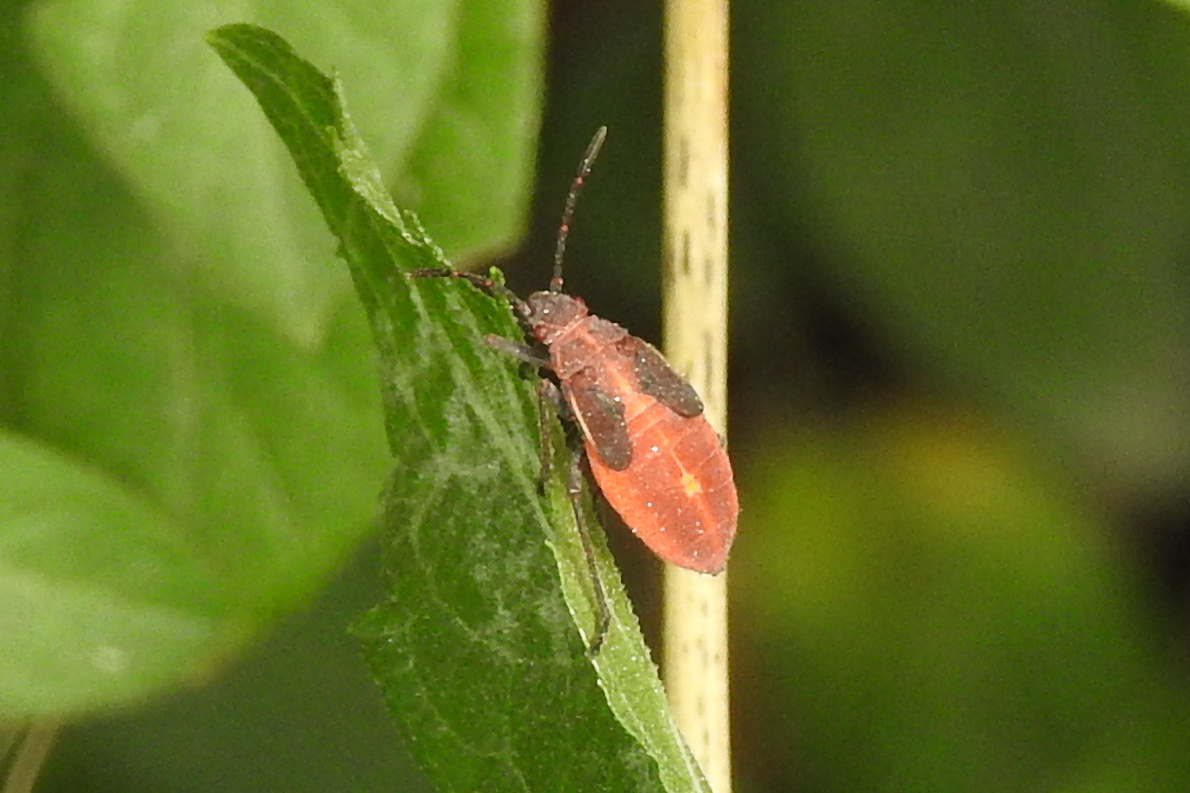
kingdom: Animalia
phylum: Arthropoda
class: Insecta
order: Hemiptera
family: Rhopalidae
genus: Boisea
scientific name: Boisea trivittata
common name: Boxelder bug
